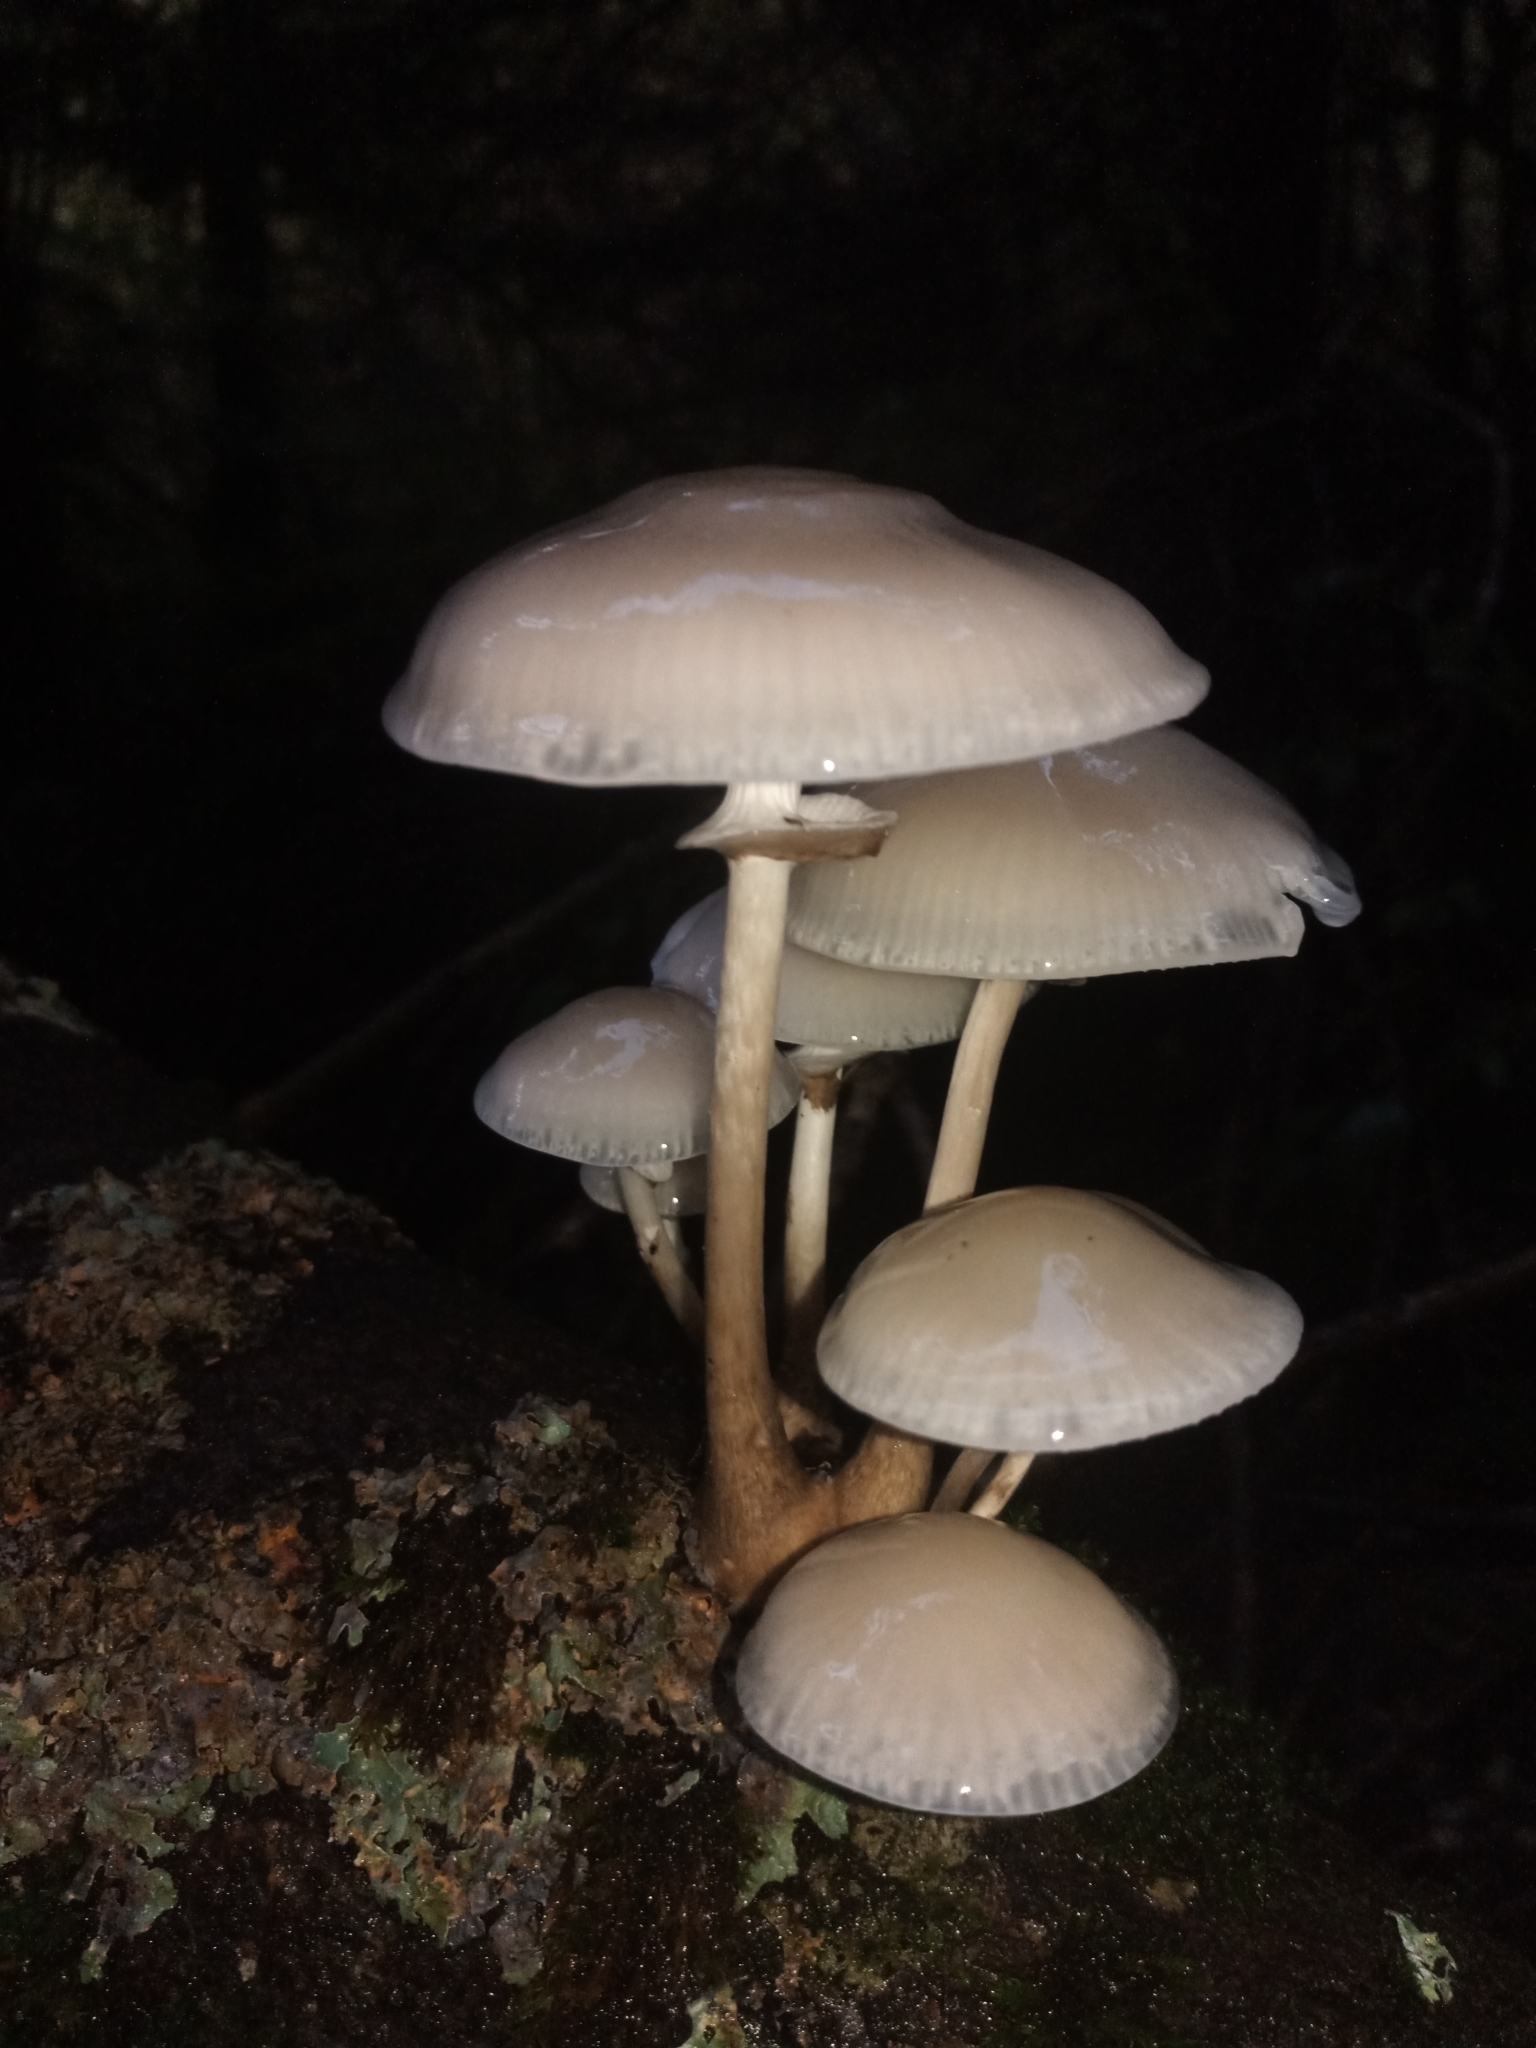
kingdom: Fungi
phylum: Basidiomycota
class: Agaricomycetes
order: Agaricales
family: Physalacriaceae
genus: Mucidula
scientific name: Mucidula mucida
